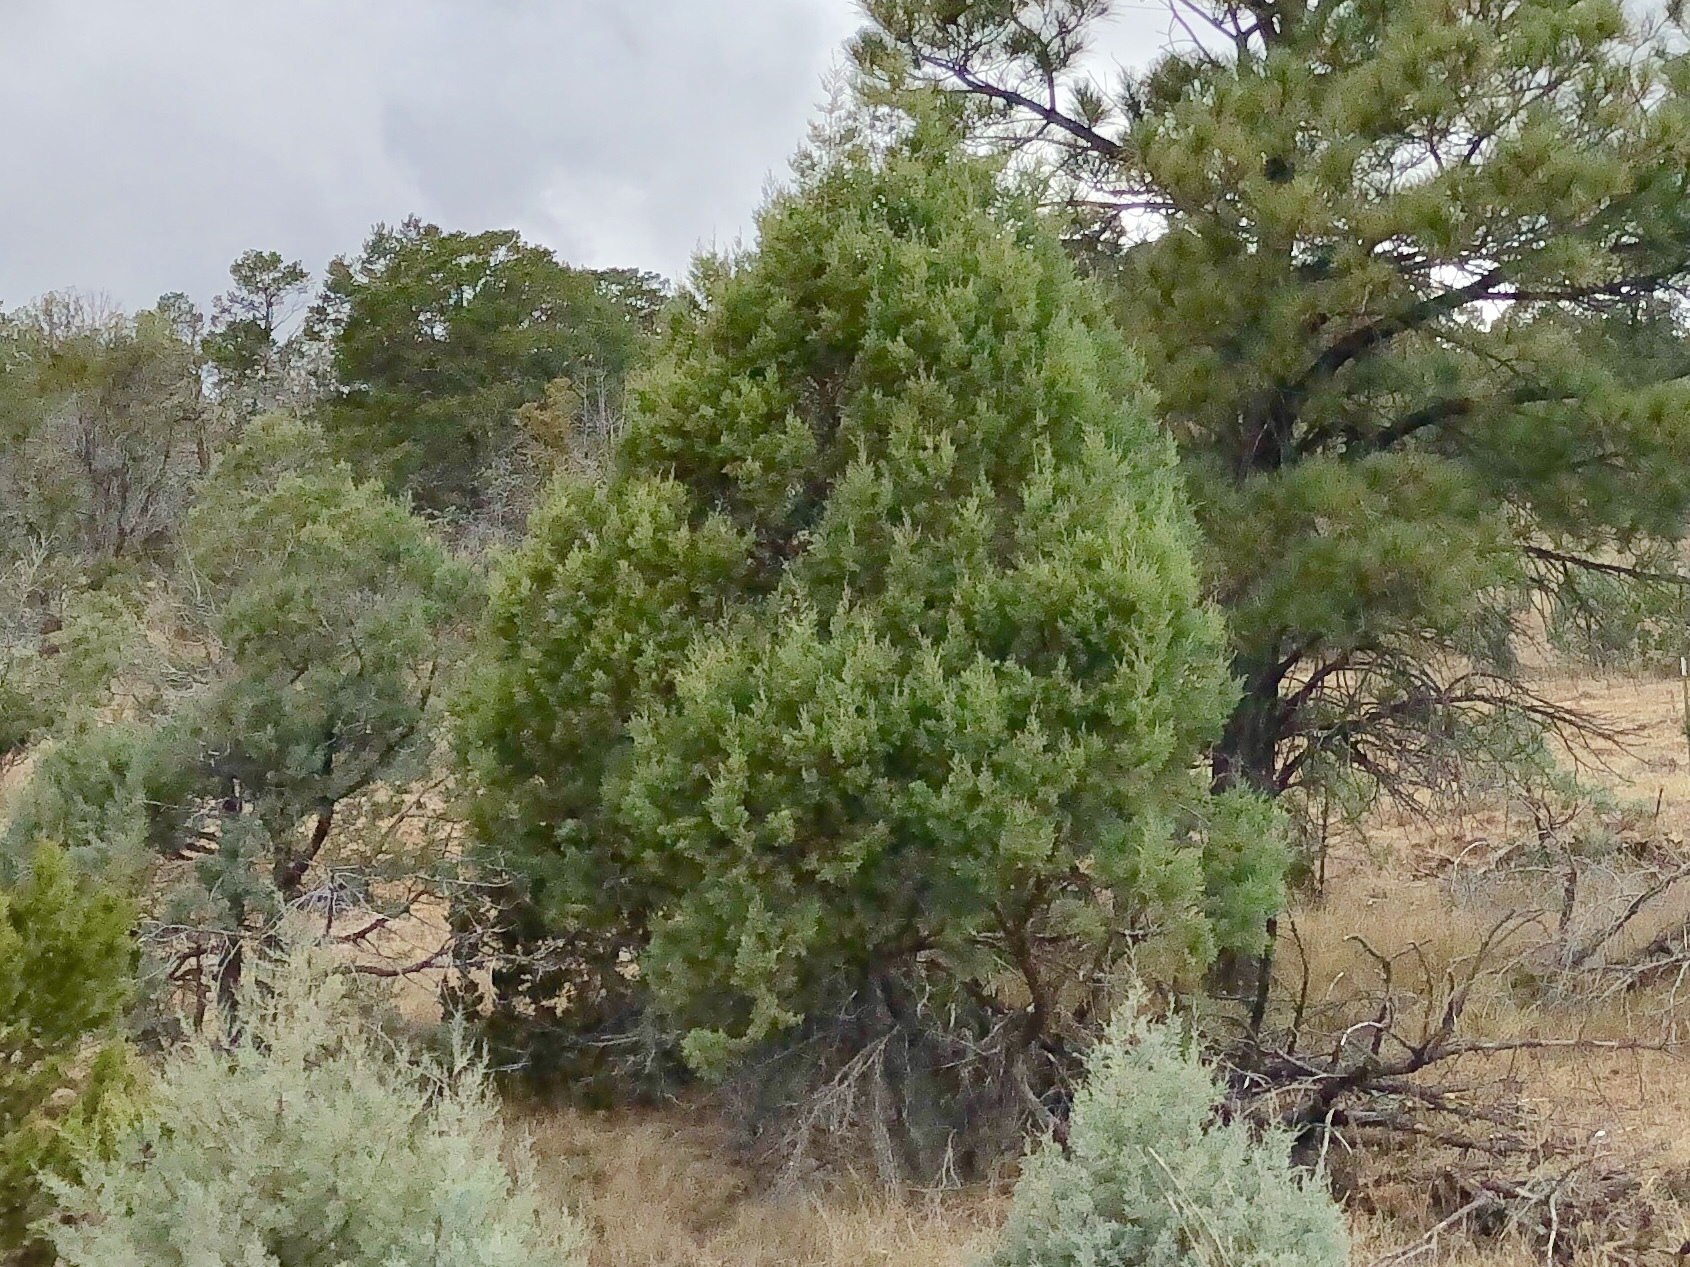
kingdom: Plantae
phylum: Tracheophyta
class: Pinopsida
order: Pinales
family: Cupressaceae
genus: Juniperus
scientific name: Juniperus deppeana
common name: Alligator juniper
